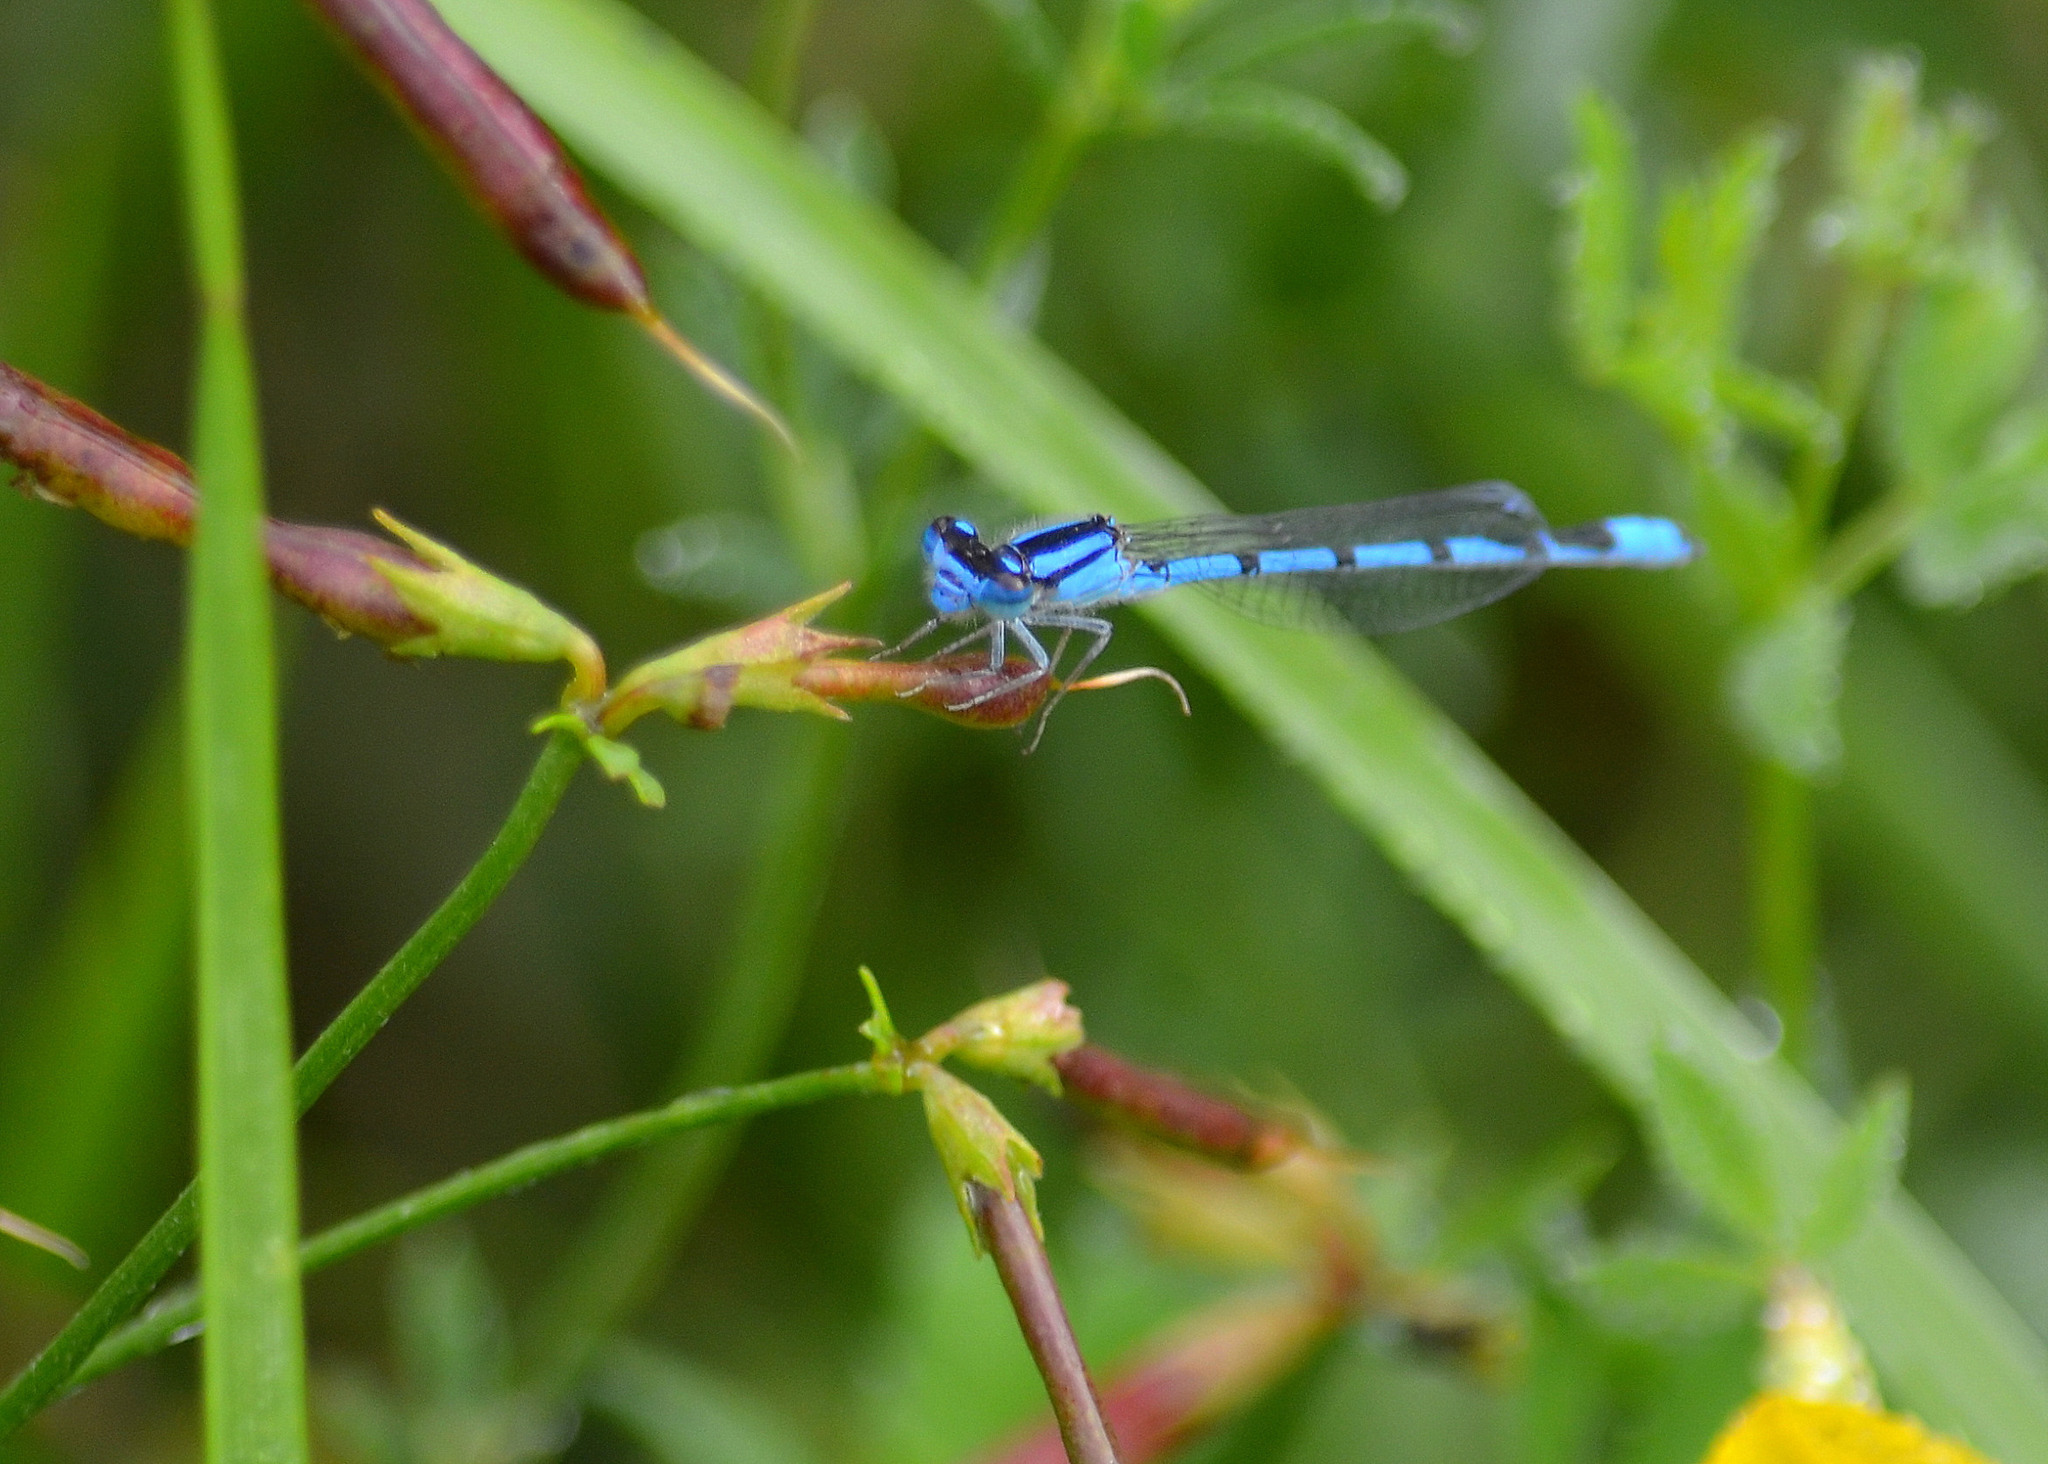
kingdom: Animalia
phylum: Arthropoda
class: Insecta
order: Odonata
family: Coenagrionidae
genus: Enallagma
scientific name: Enallagma civile
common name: Damselfly
